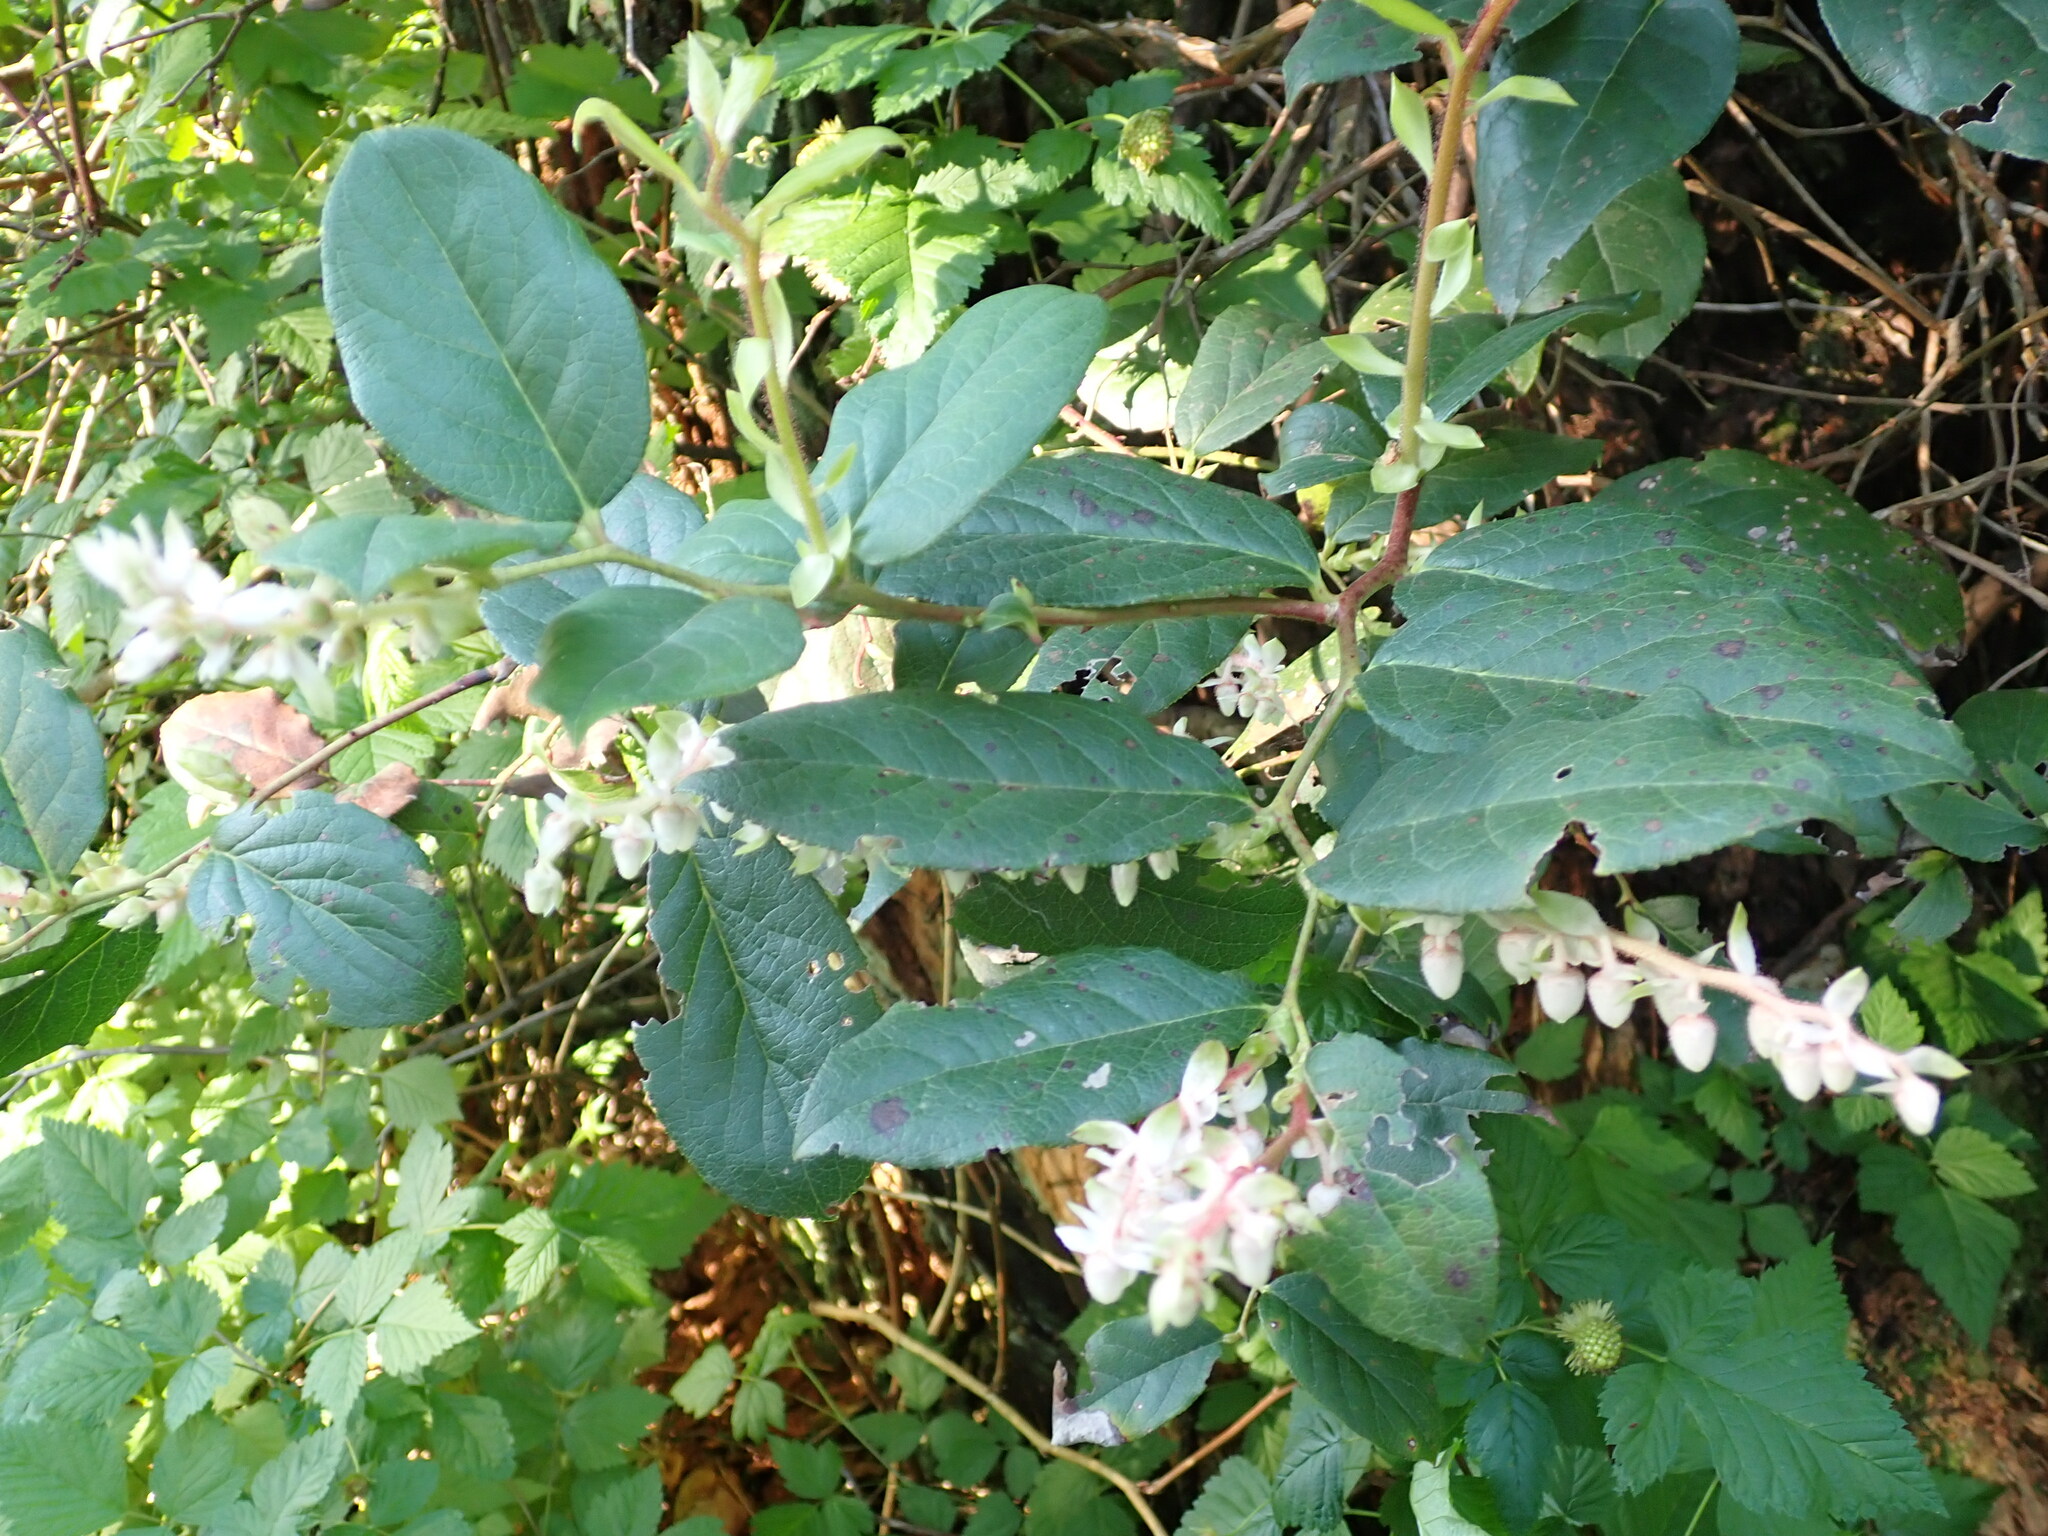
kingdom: Plantae
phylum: Tracheophyta
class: Magnoliopsida
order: Ericales
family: Ericaceae
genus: Gaultheria
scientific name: Gaultheria shallon
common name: Shallon
